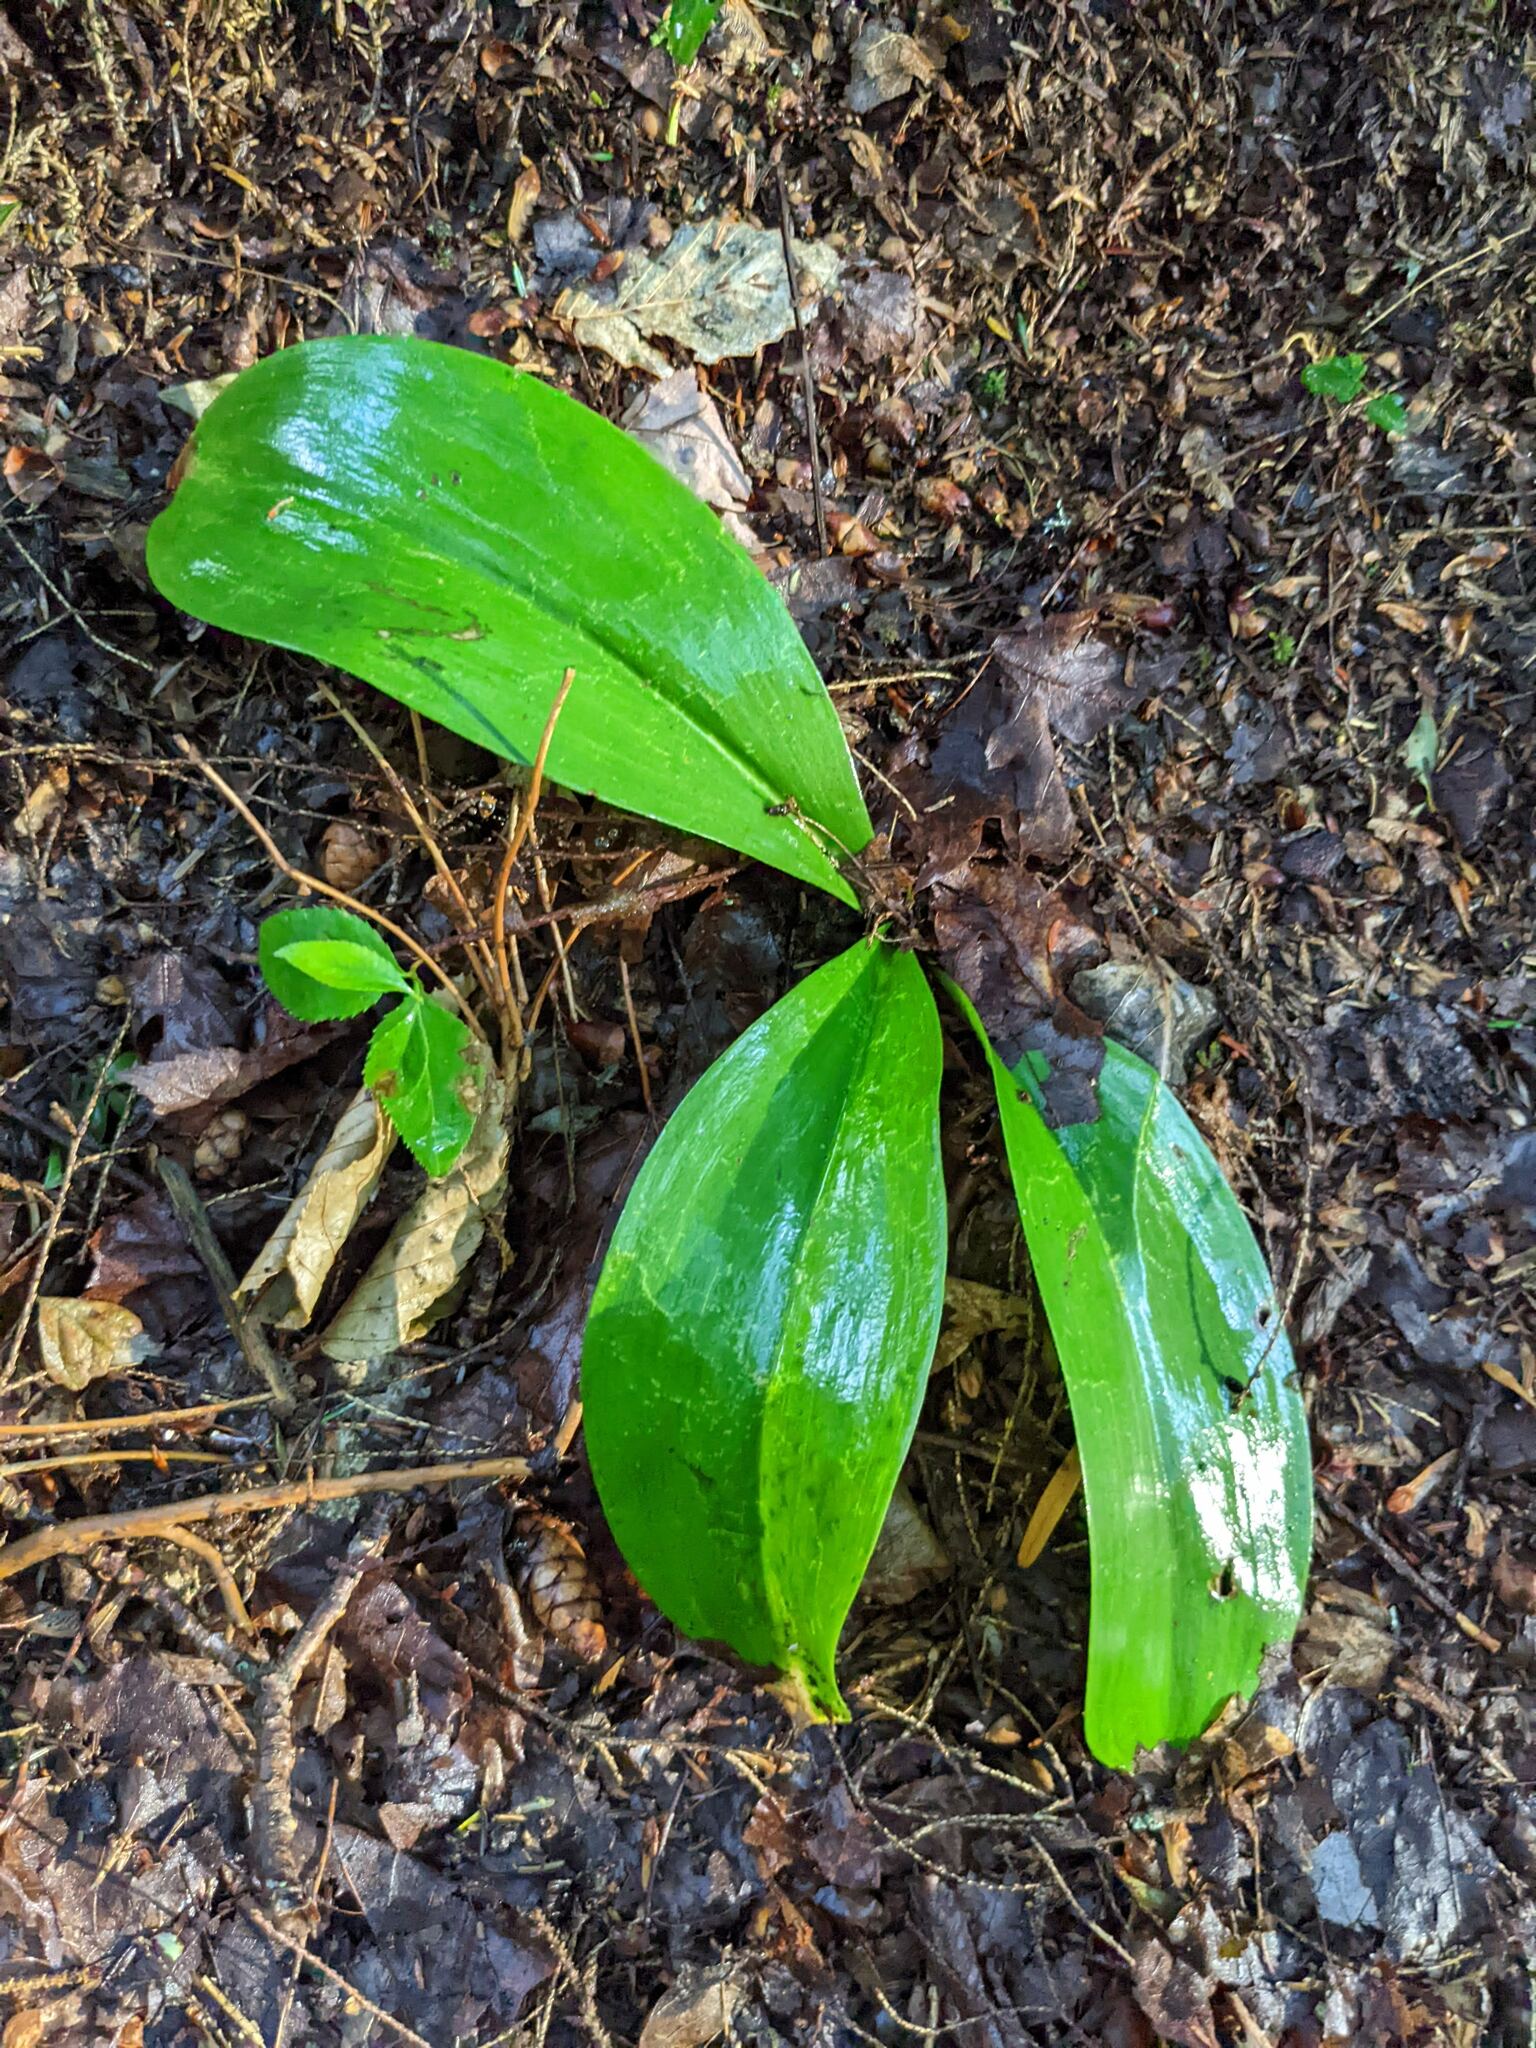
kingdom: Plantae
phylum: Tracheophyta
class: Liliopsida
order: Liliales
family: Liliaceae
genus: Clintonia
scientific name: Clintonia borealis
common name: Yellow clintonia
